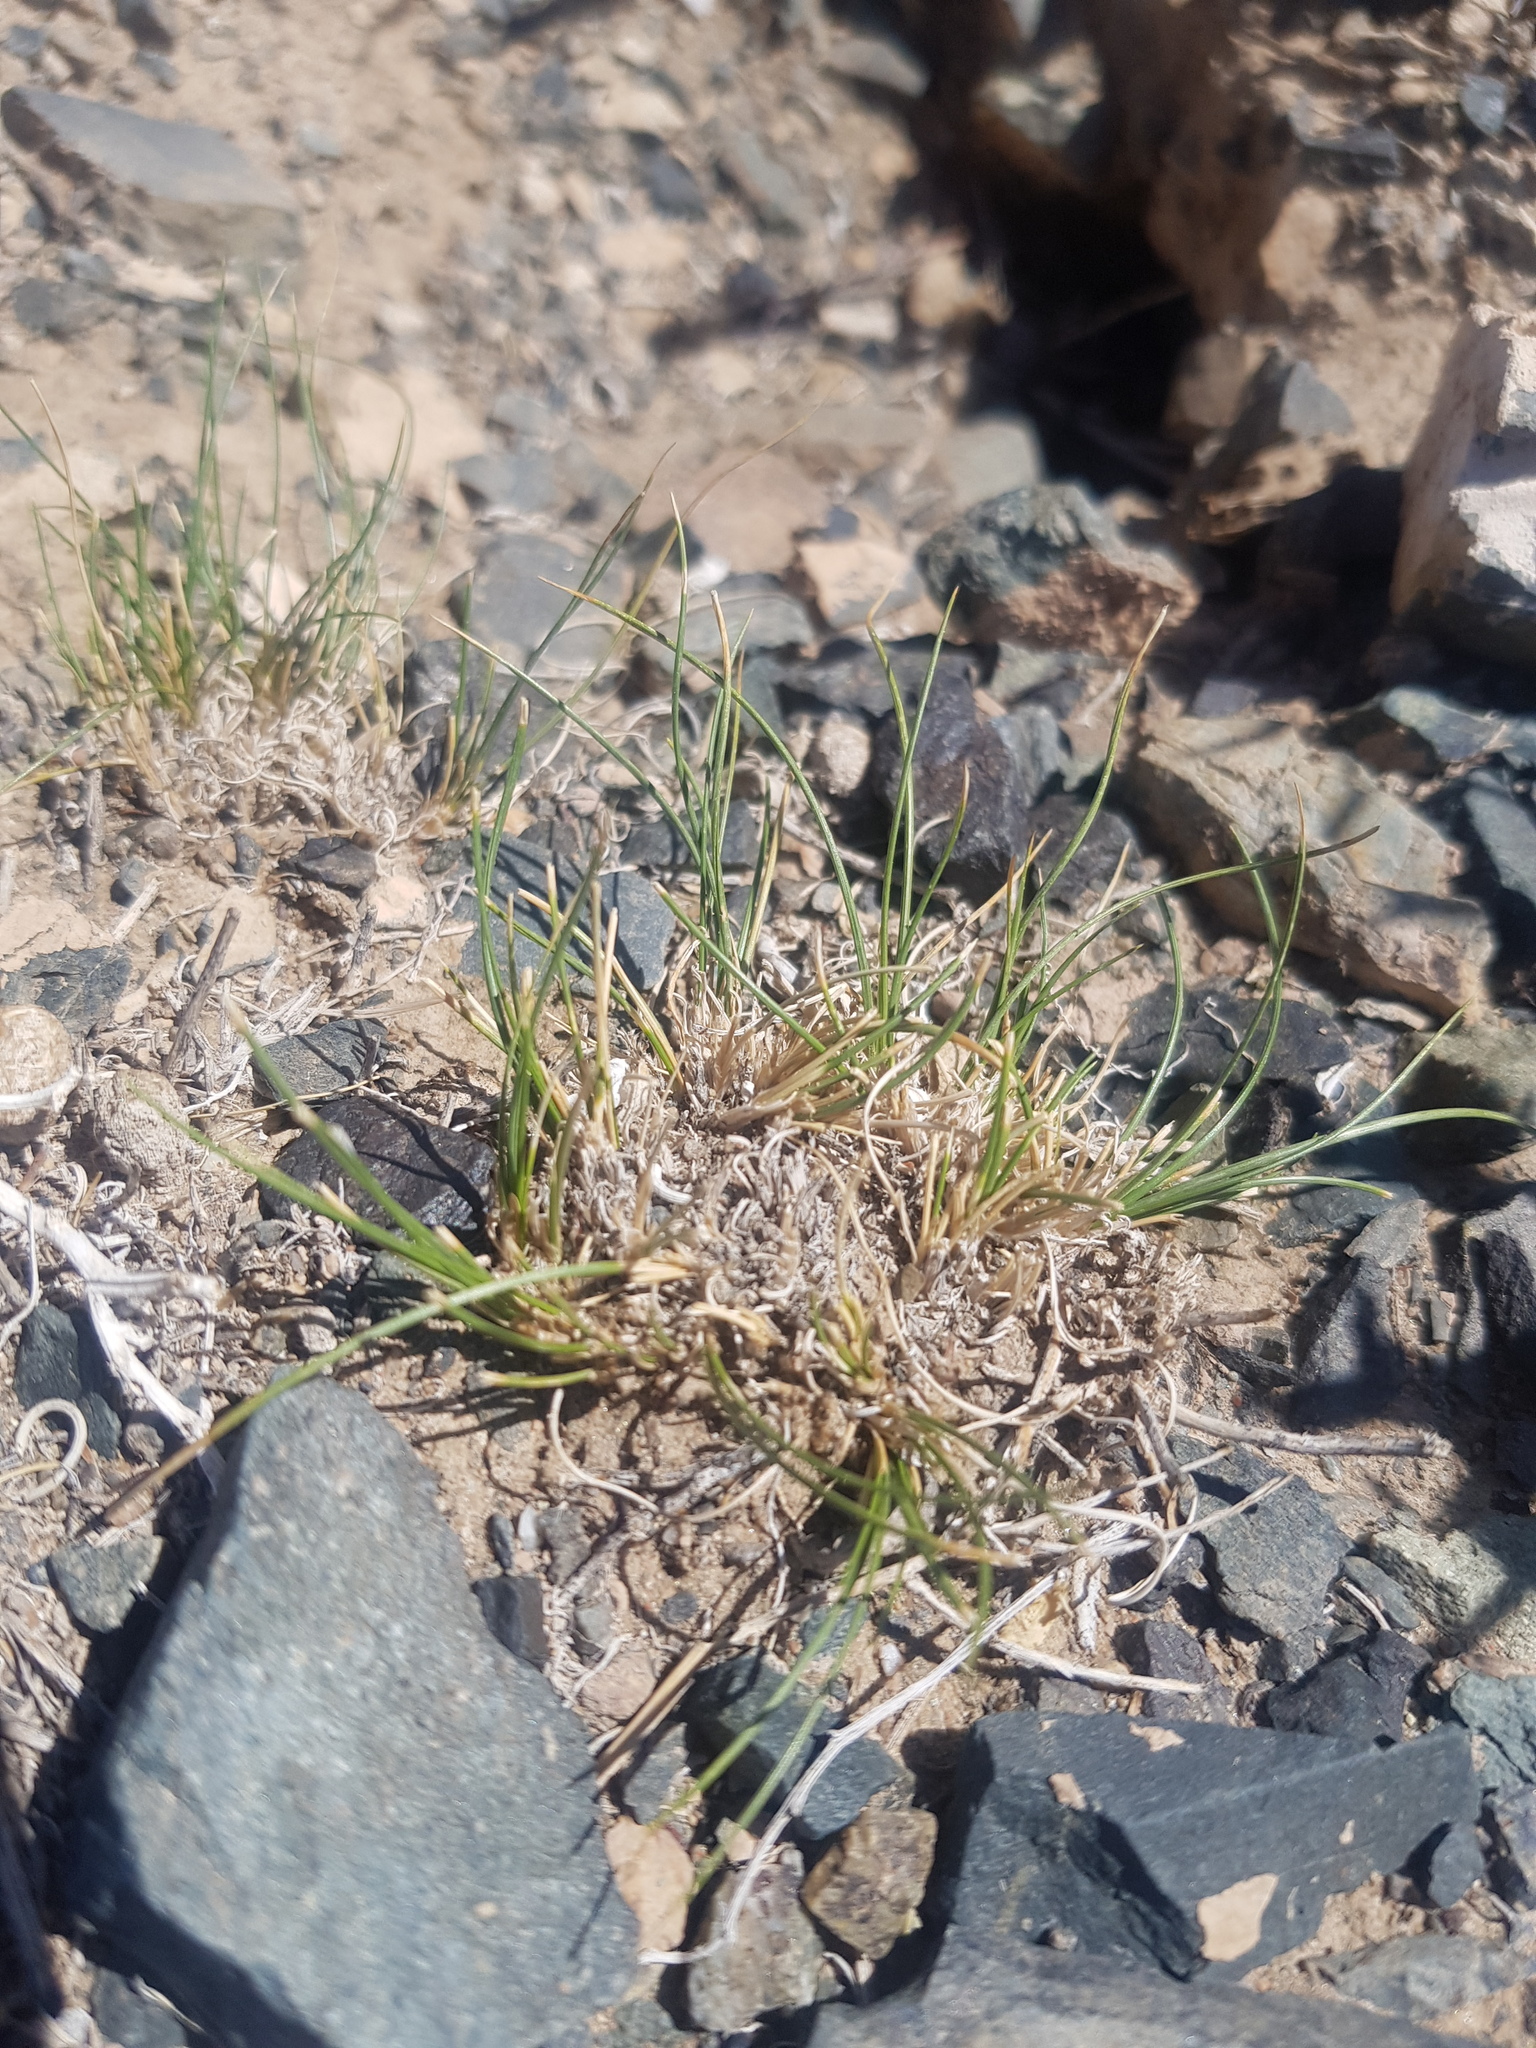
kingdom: Plantae
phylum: Tracheophyta
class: Liliopsida
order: Poales
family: Poaceae
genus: Stipa
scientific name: Stipa glareosa
